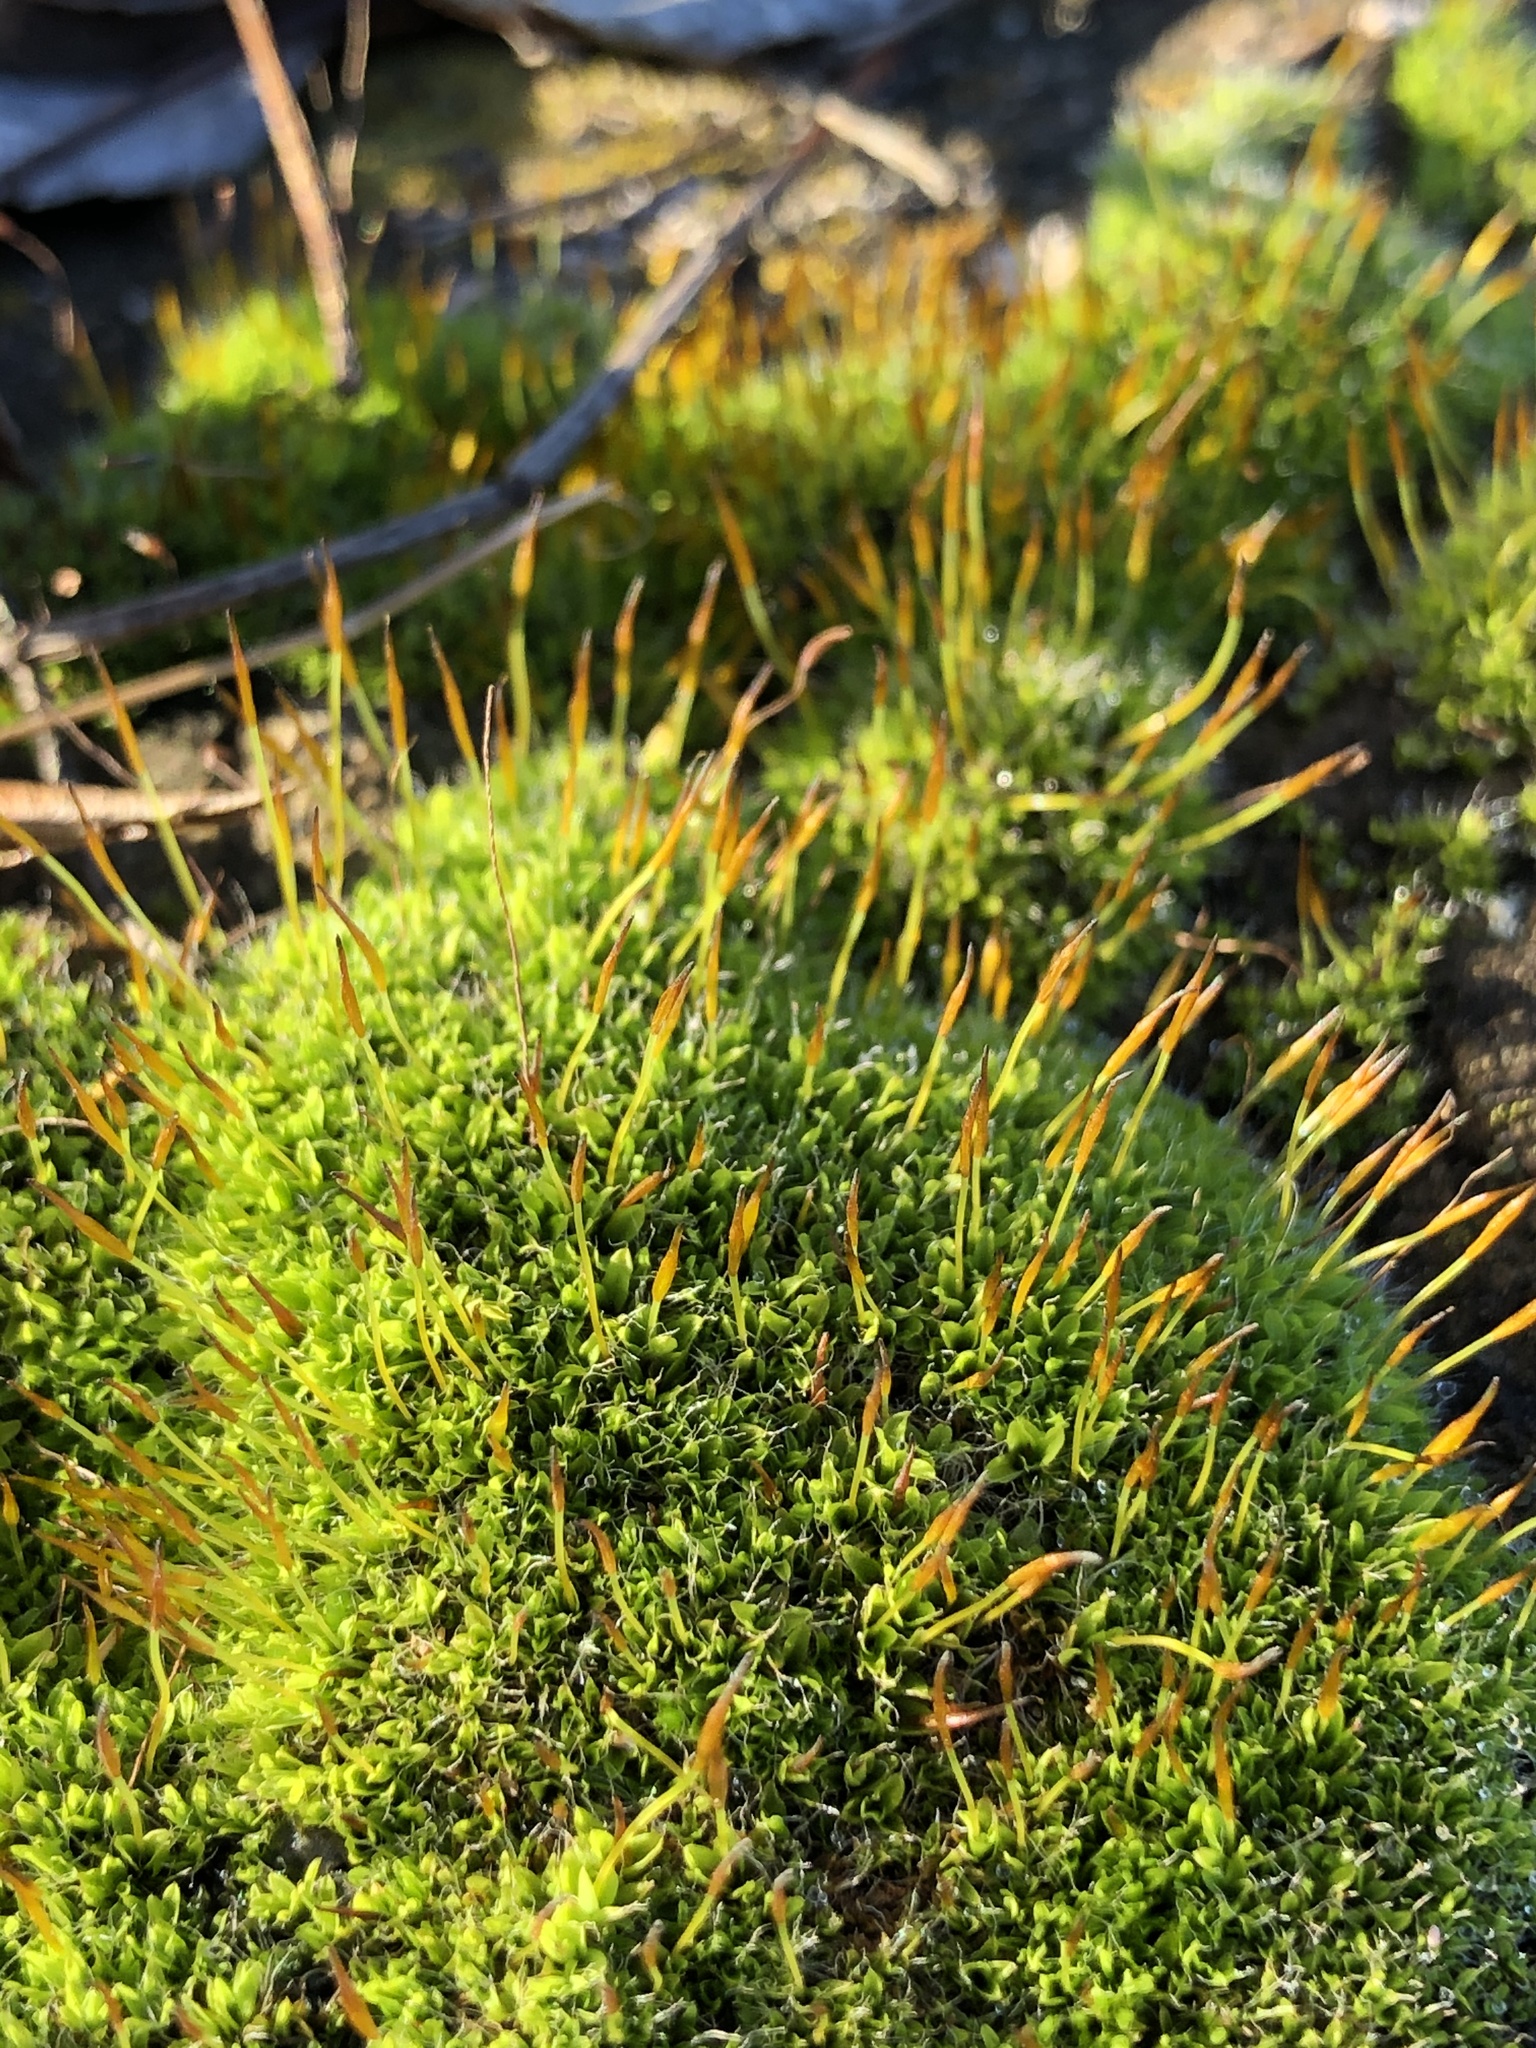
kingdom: Plantae
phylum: Bryophyta
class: Bryopsida
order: Pottiales
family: Pottiaceae
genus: Tortula
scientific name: Tortula muralis
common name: Wall screw-moss
